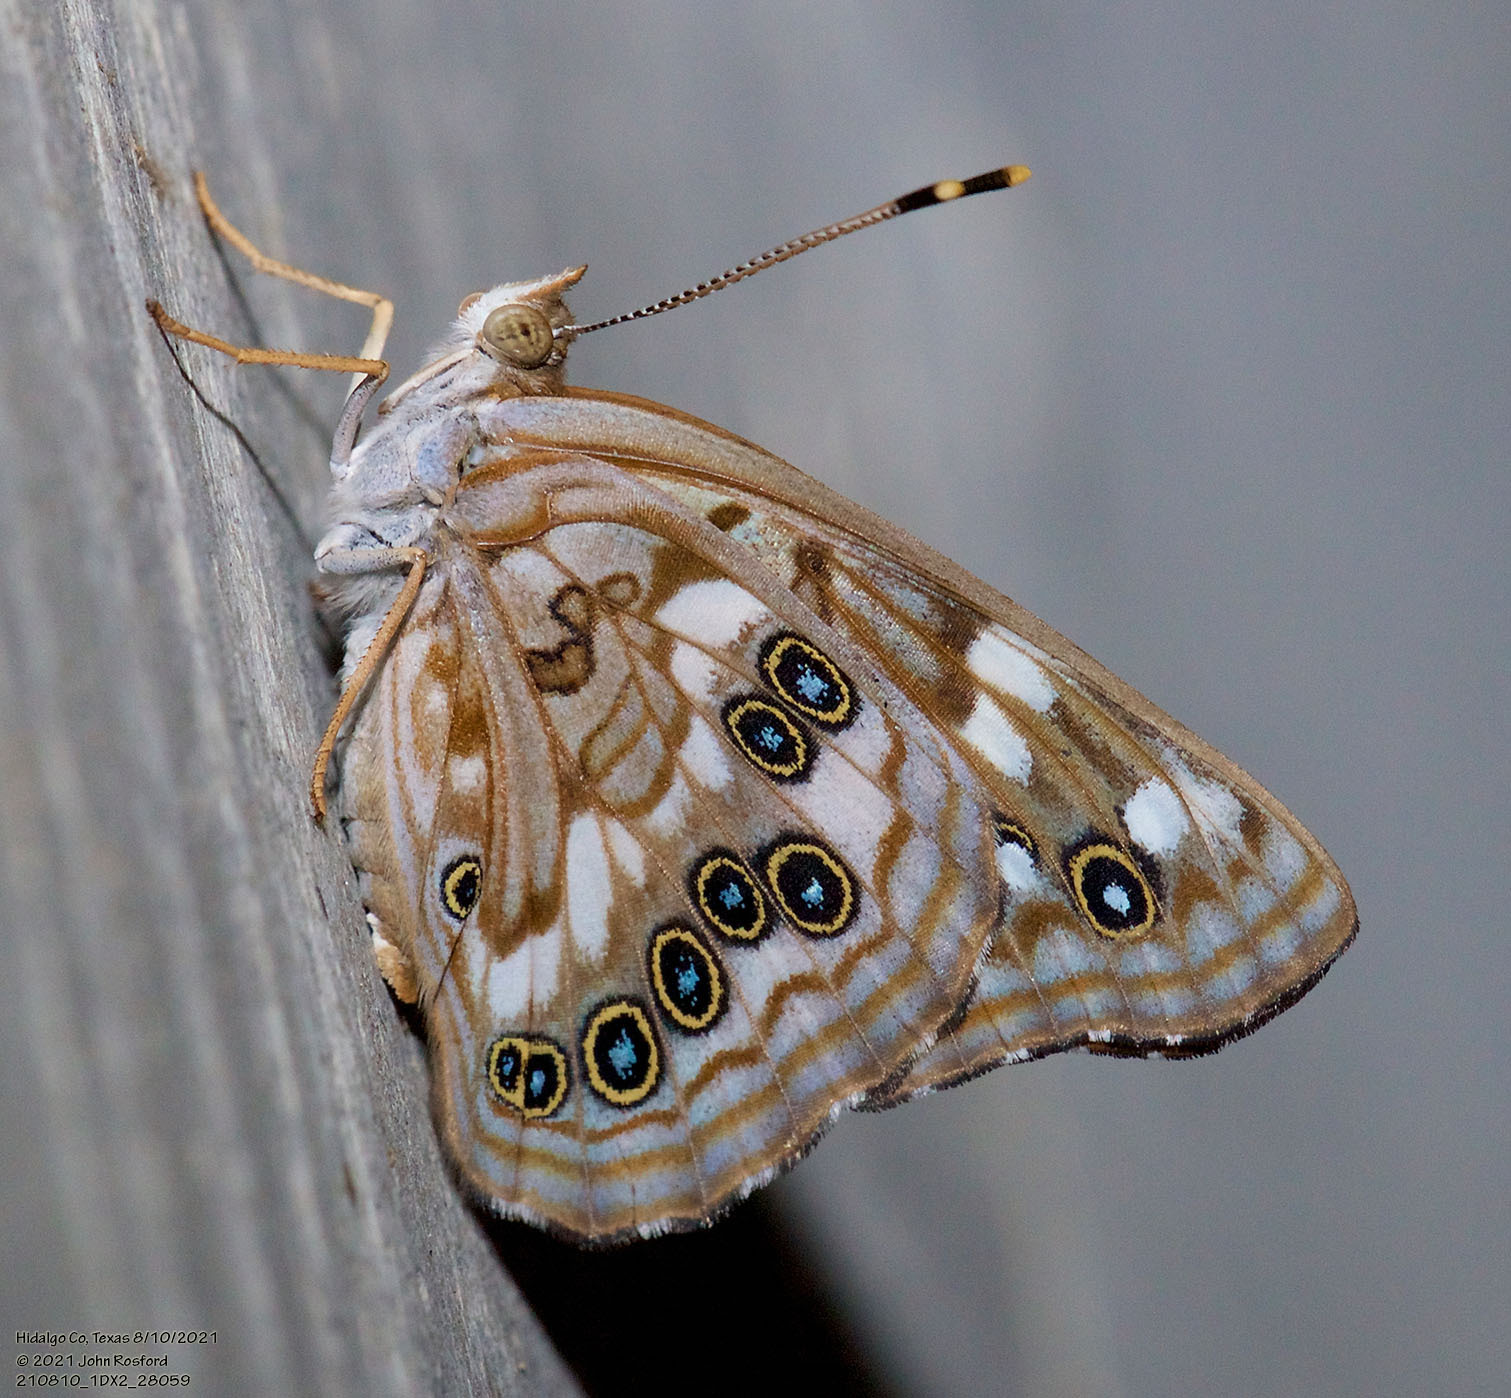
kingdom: Animalia
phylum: Arthropoda
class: Insecta
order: Lepidoptera
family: Nymphalidae
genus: Asterocampa
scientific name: Asterocampa celtis
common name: Hackberry emperor
